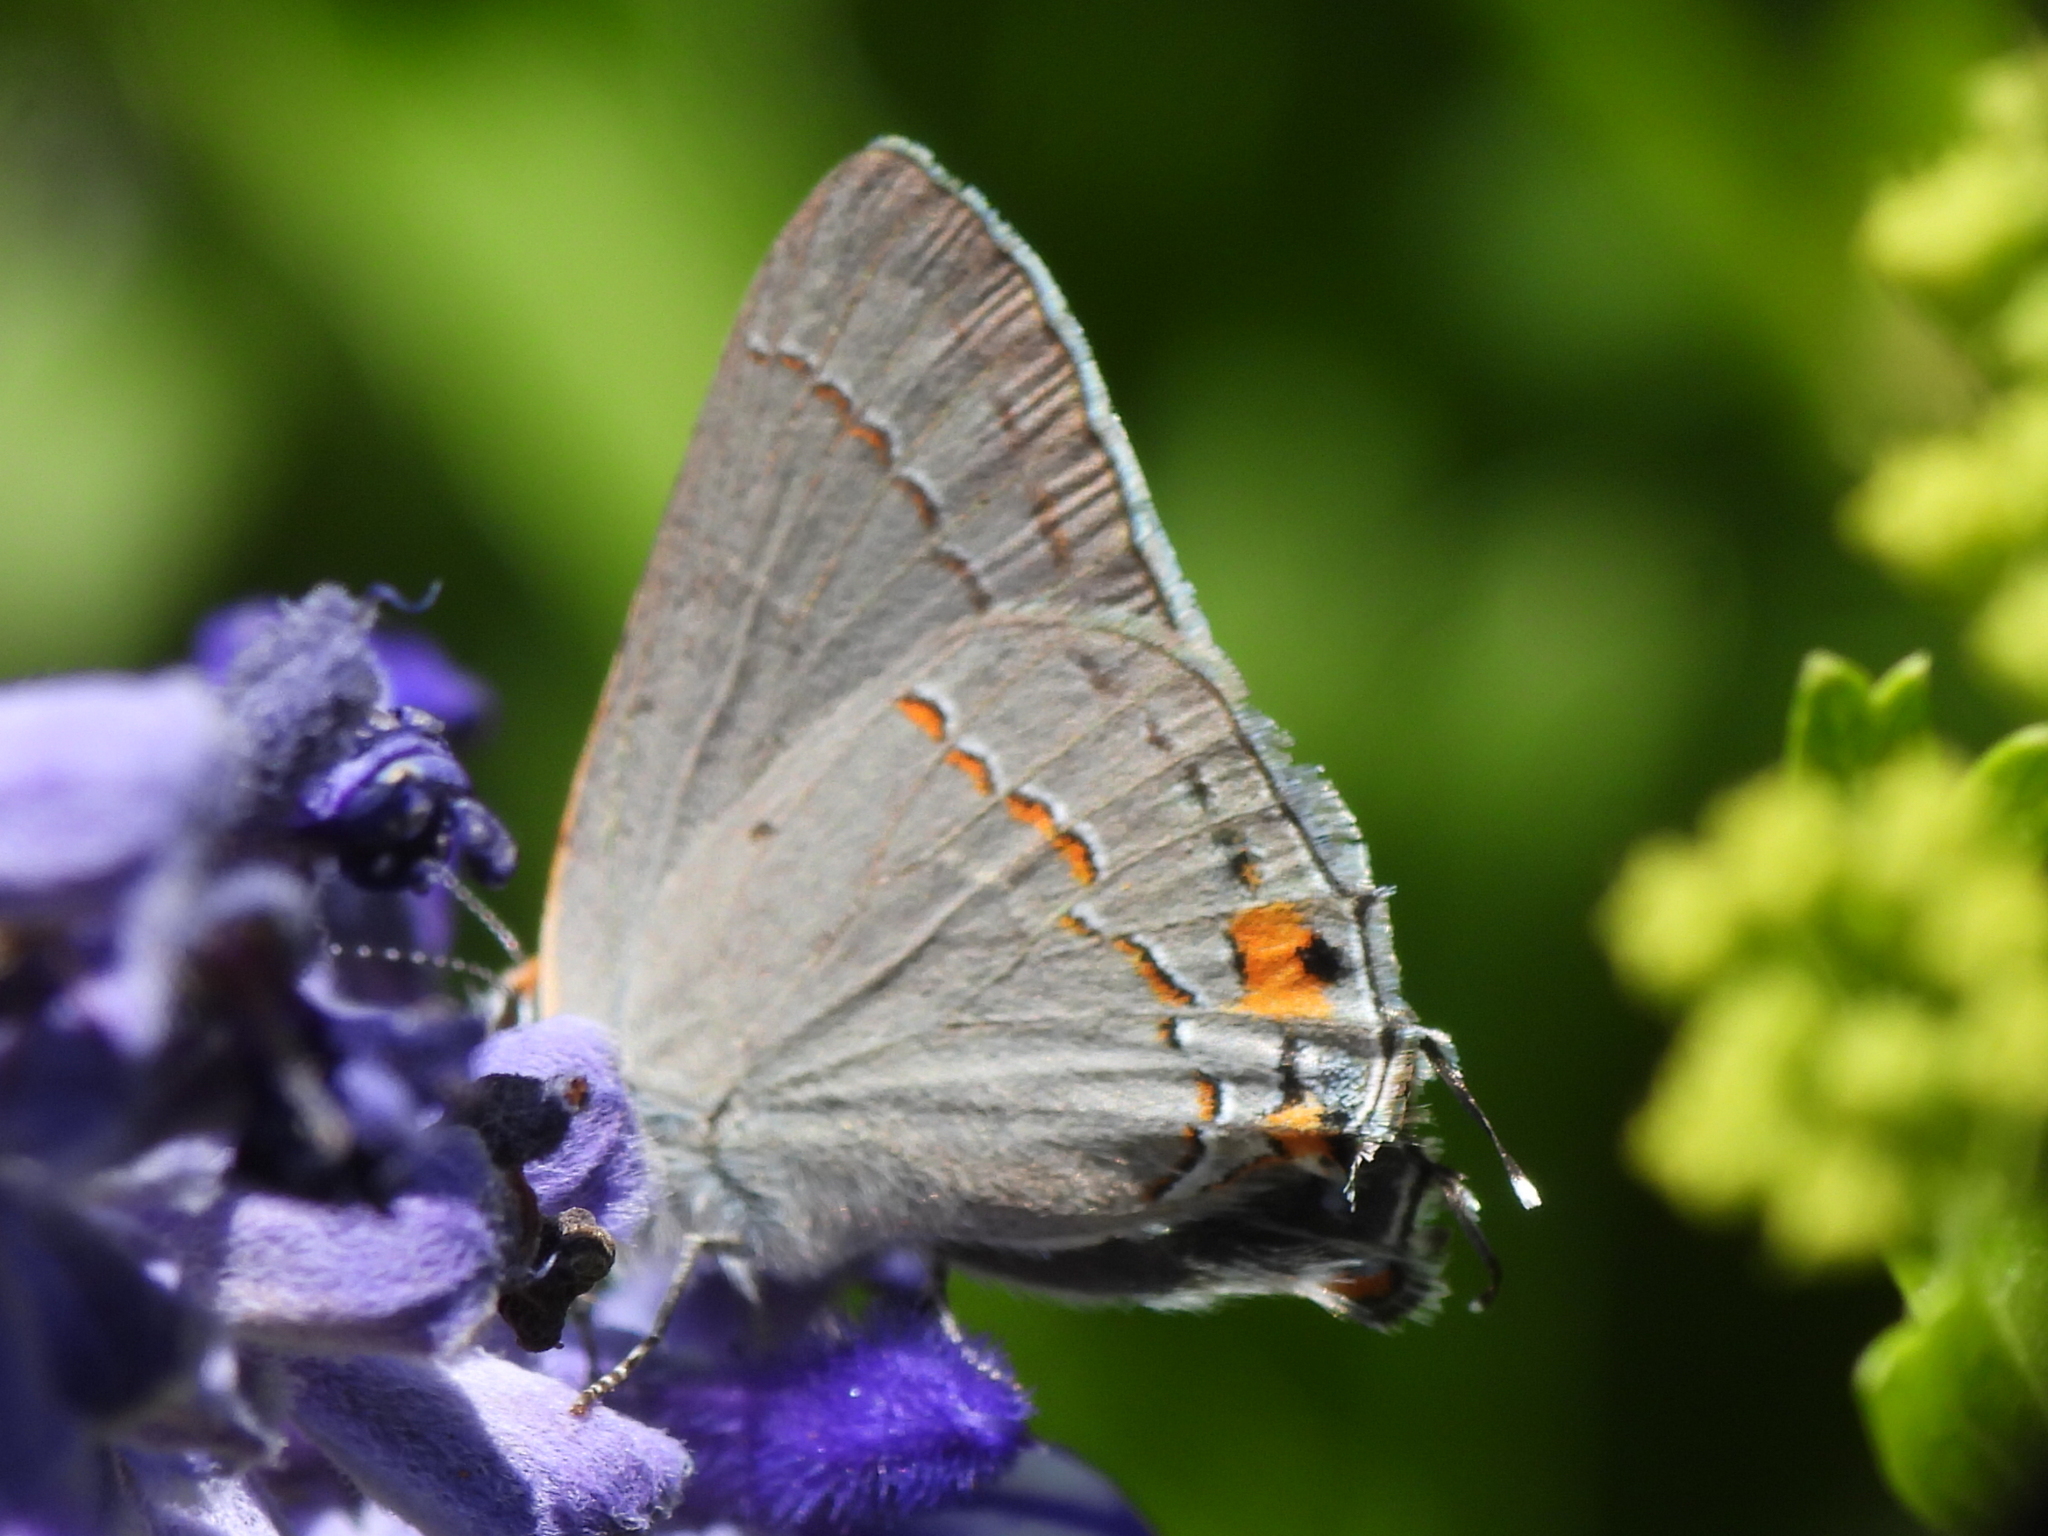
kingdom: Animalia
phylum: Arthropoda
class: Insecta
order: Lepidoptera
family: Lycaenidae
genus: Strymon
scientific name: Strymon melinus
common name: Gray hairstreak
